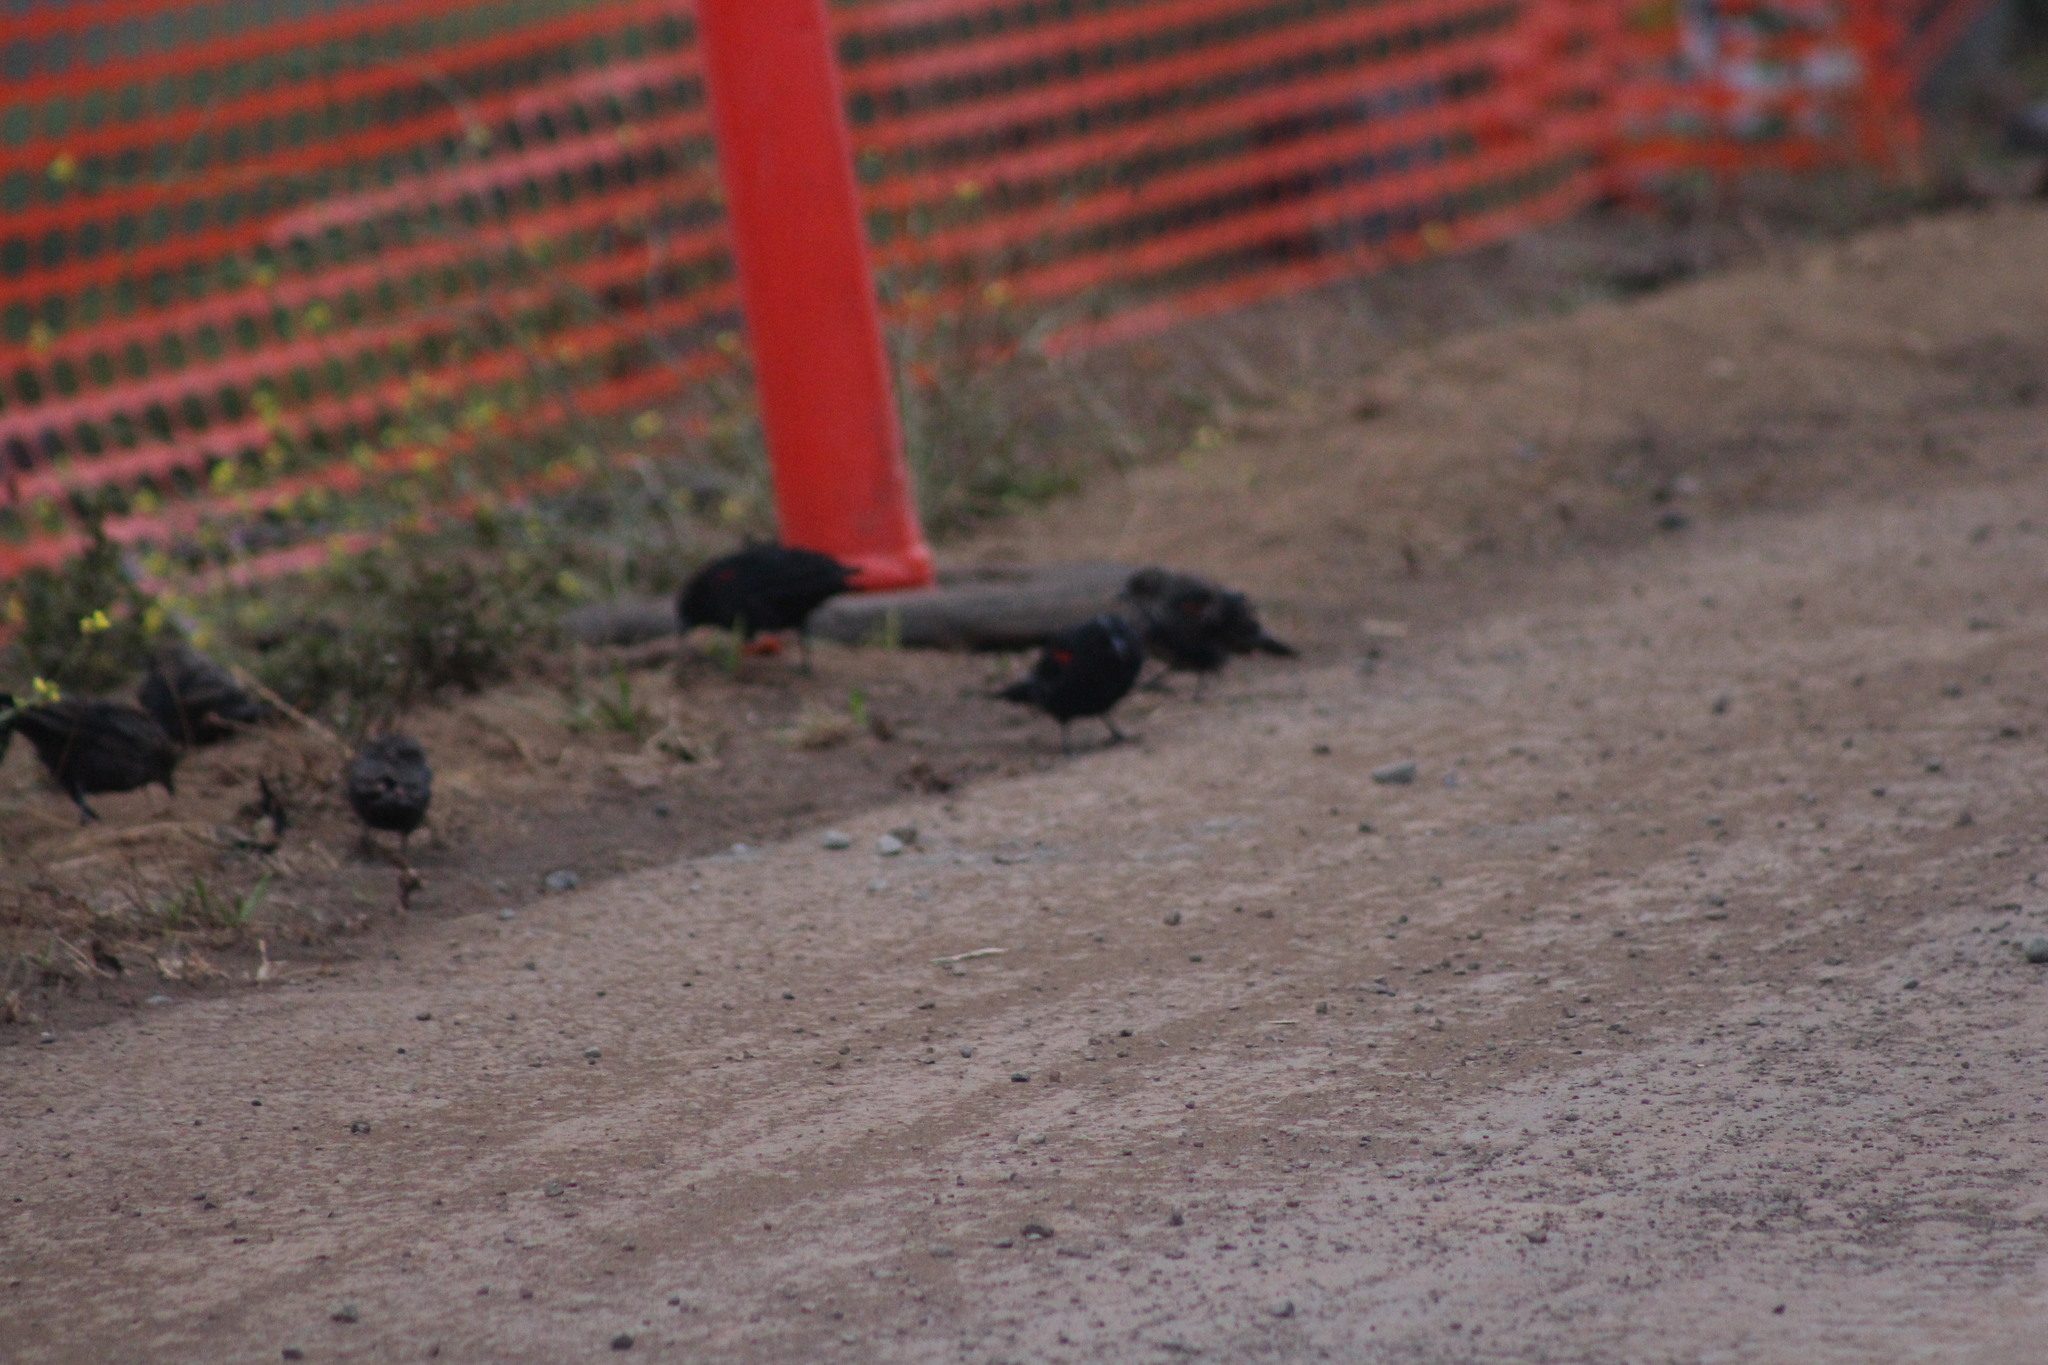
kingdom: Animalia
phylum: Chordata
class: Aves
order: Passeriformes
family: Icteridae
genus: Agelaius
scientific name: Agelaius phoeniceus
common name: Red-winged blackbird
